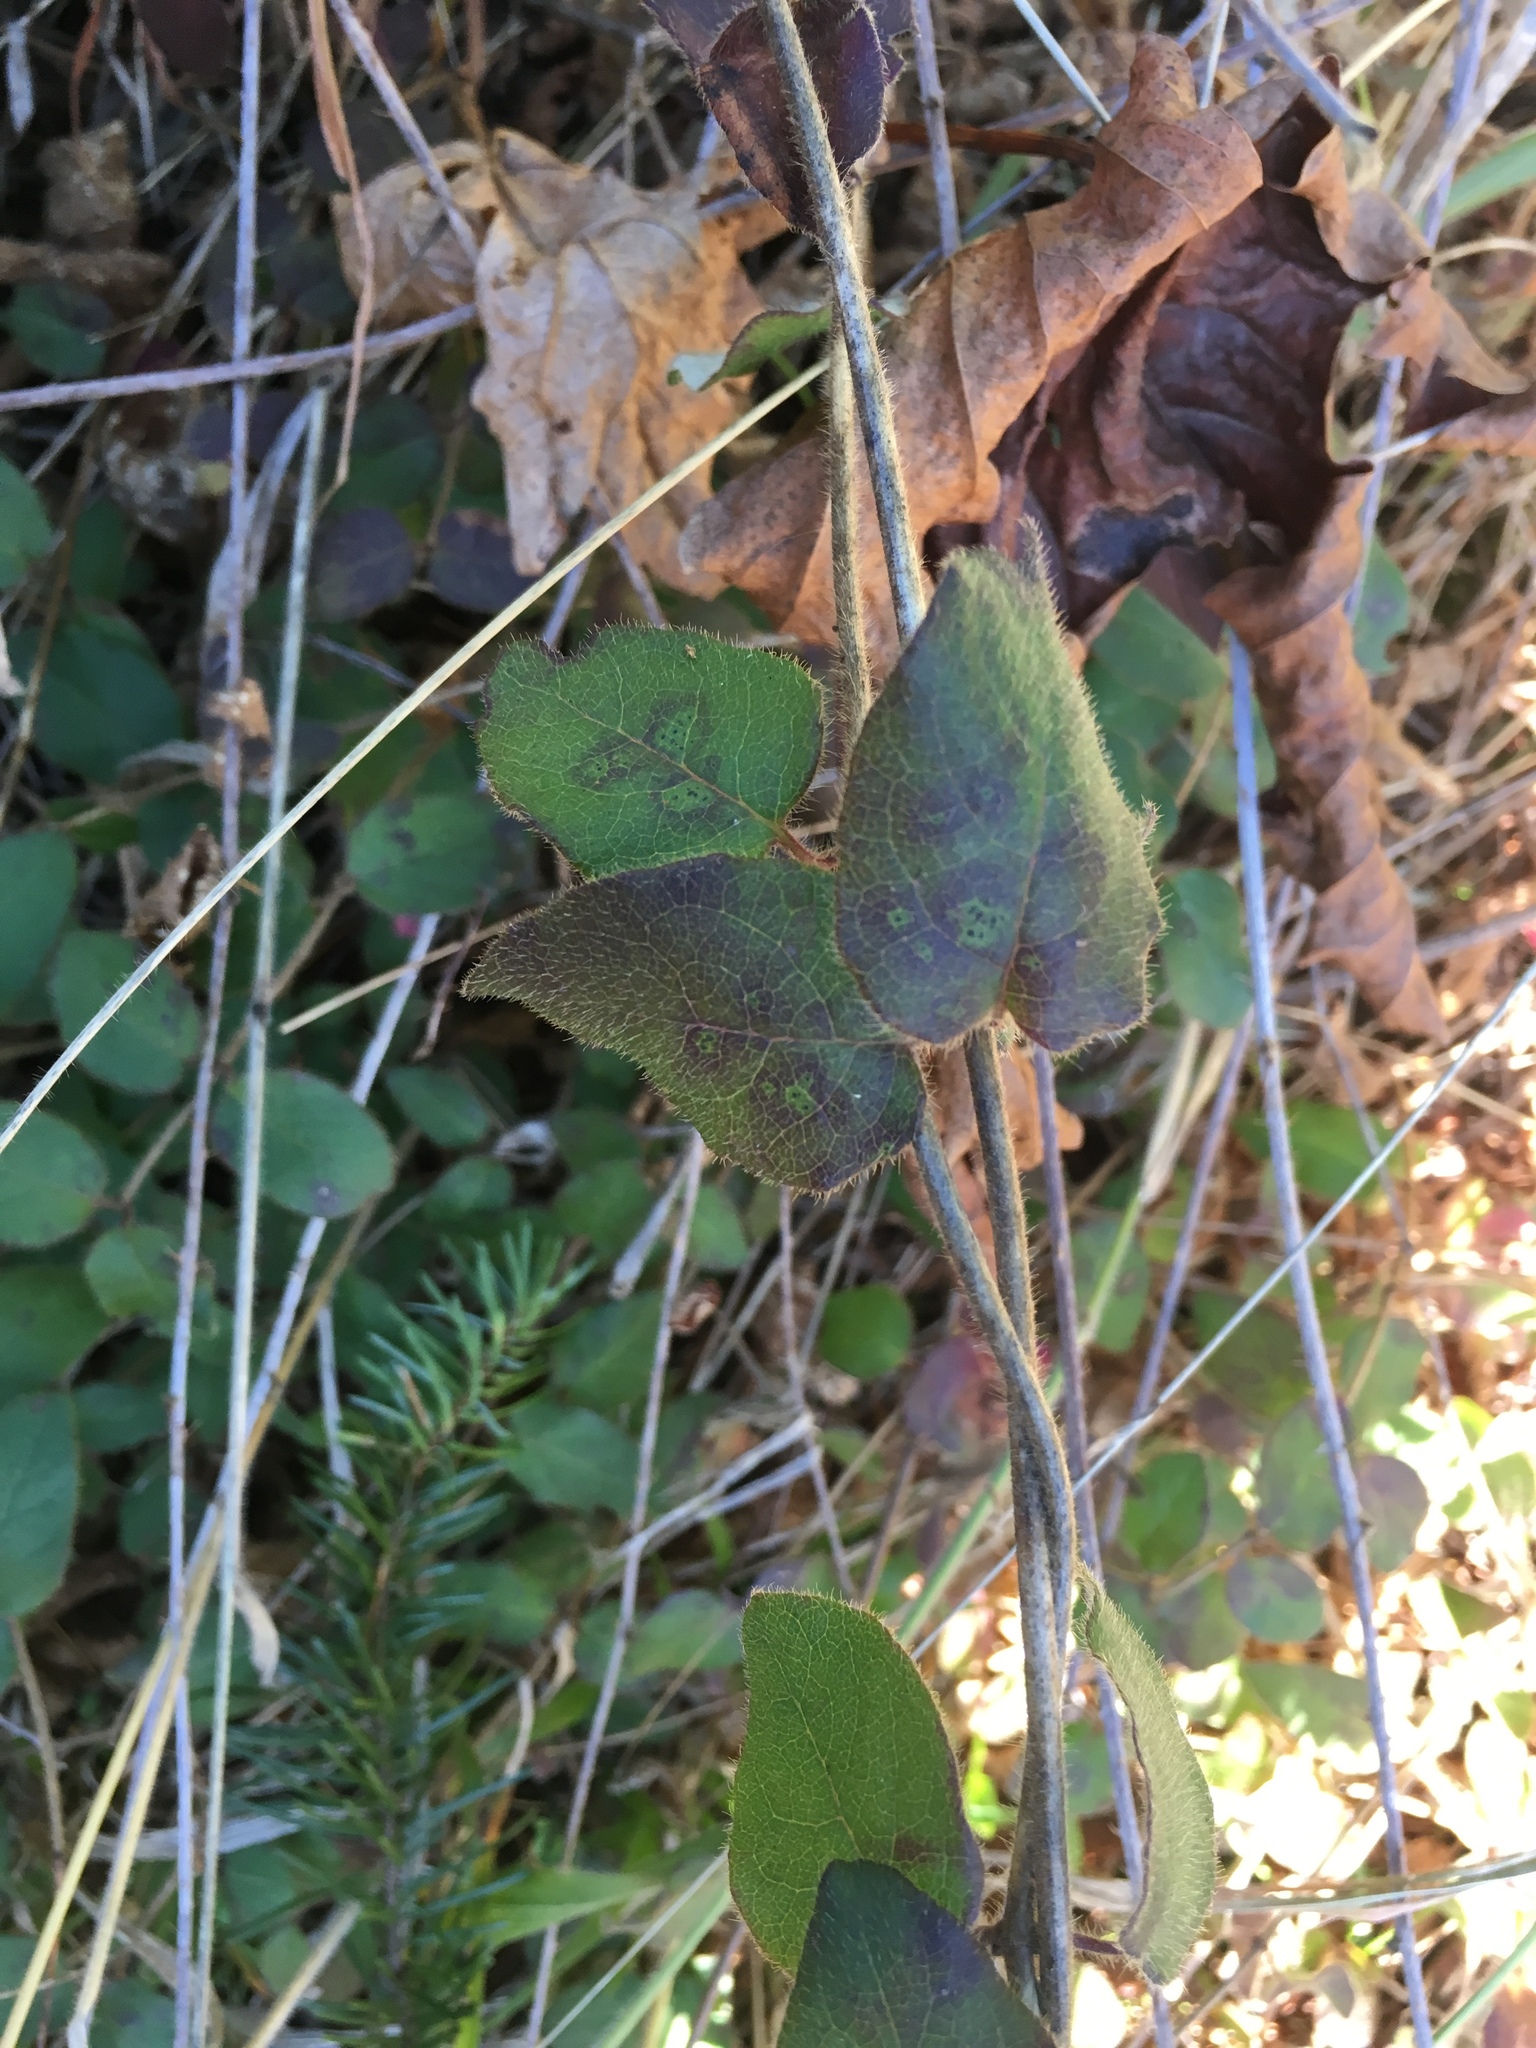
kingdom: Plantae
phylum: Tracheophyta
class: Magnoliopsida
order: Dipsacales
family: Caprifoliaceae
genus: Lonicera
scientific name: Lonicera hispidula
